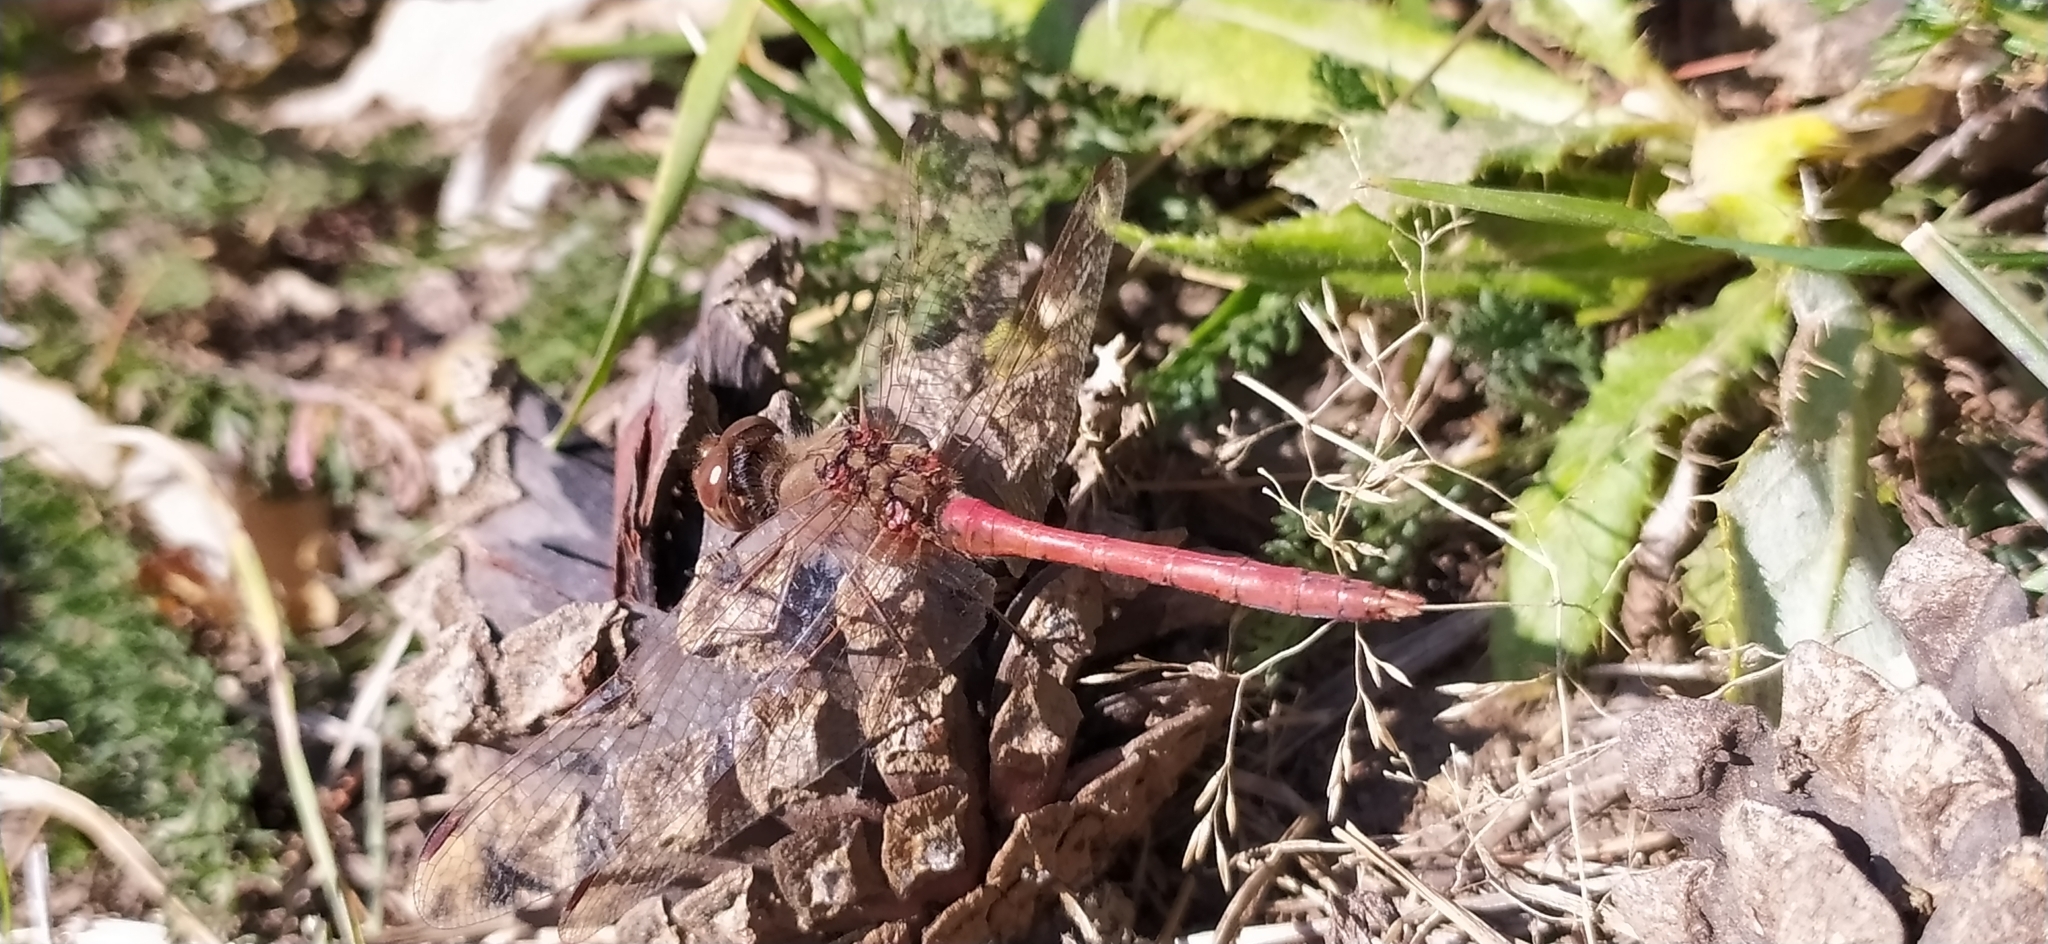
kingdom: Animalia
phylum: Arthropoda
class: Insecta
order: Odonata
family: Libellulidae
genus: Sympetrum
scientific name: Sympetrum vulgatum
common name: Vagrant darter
